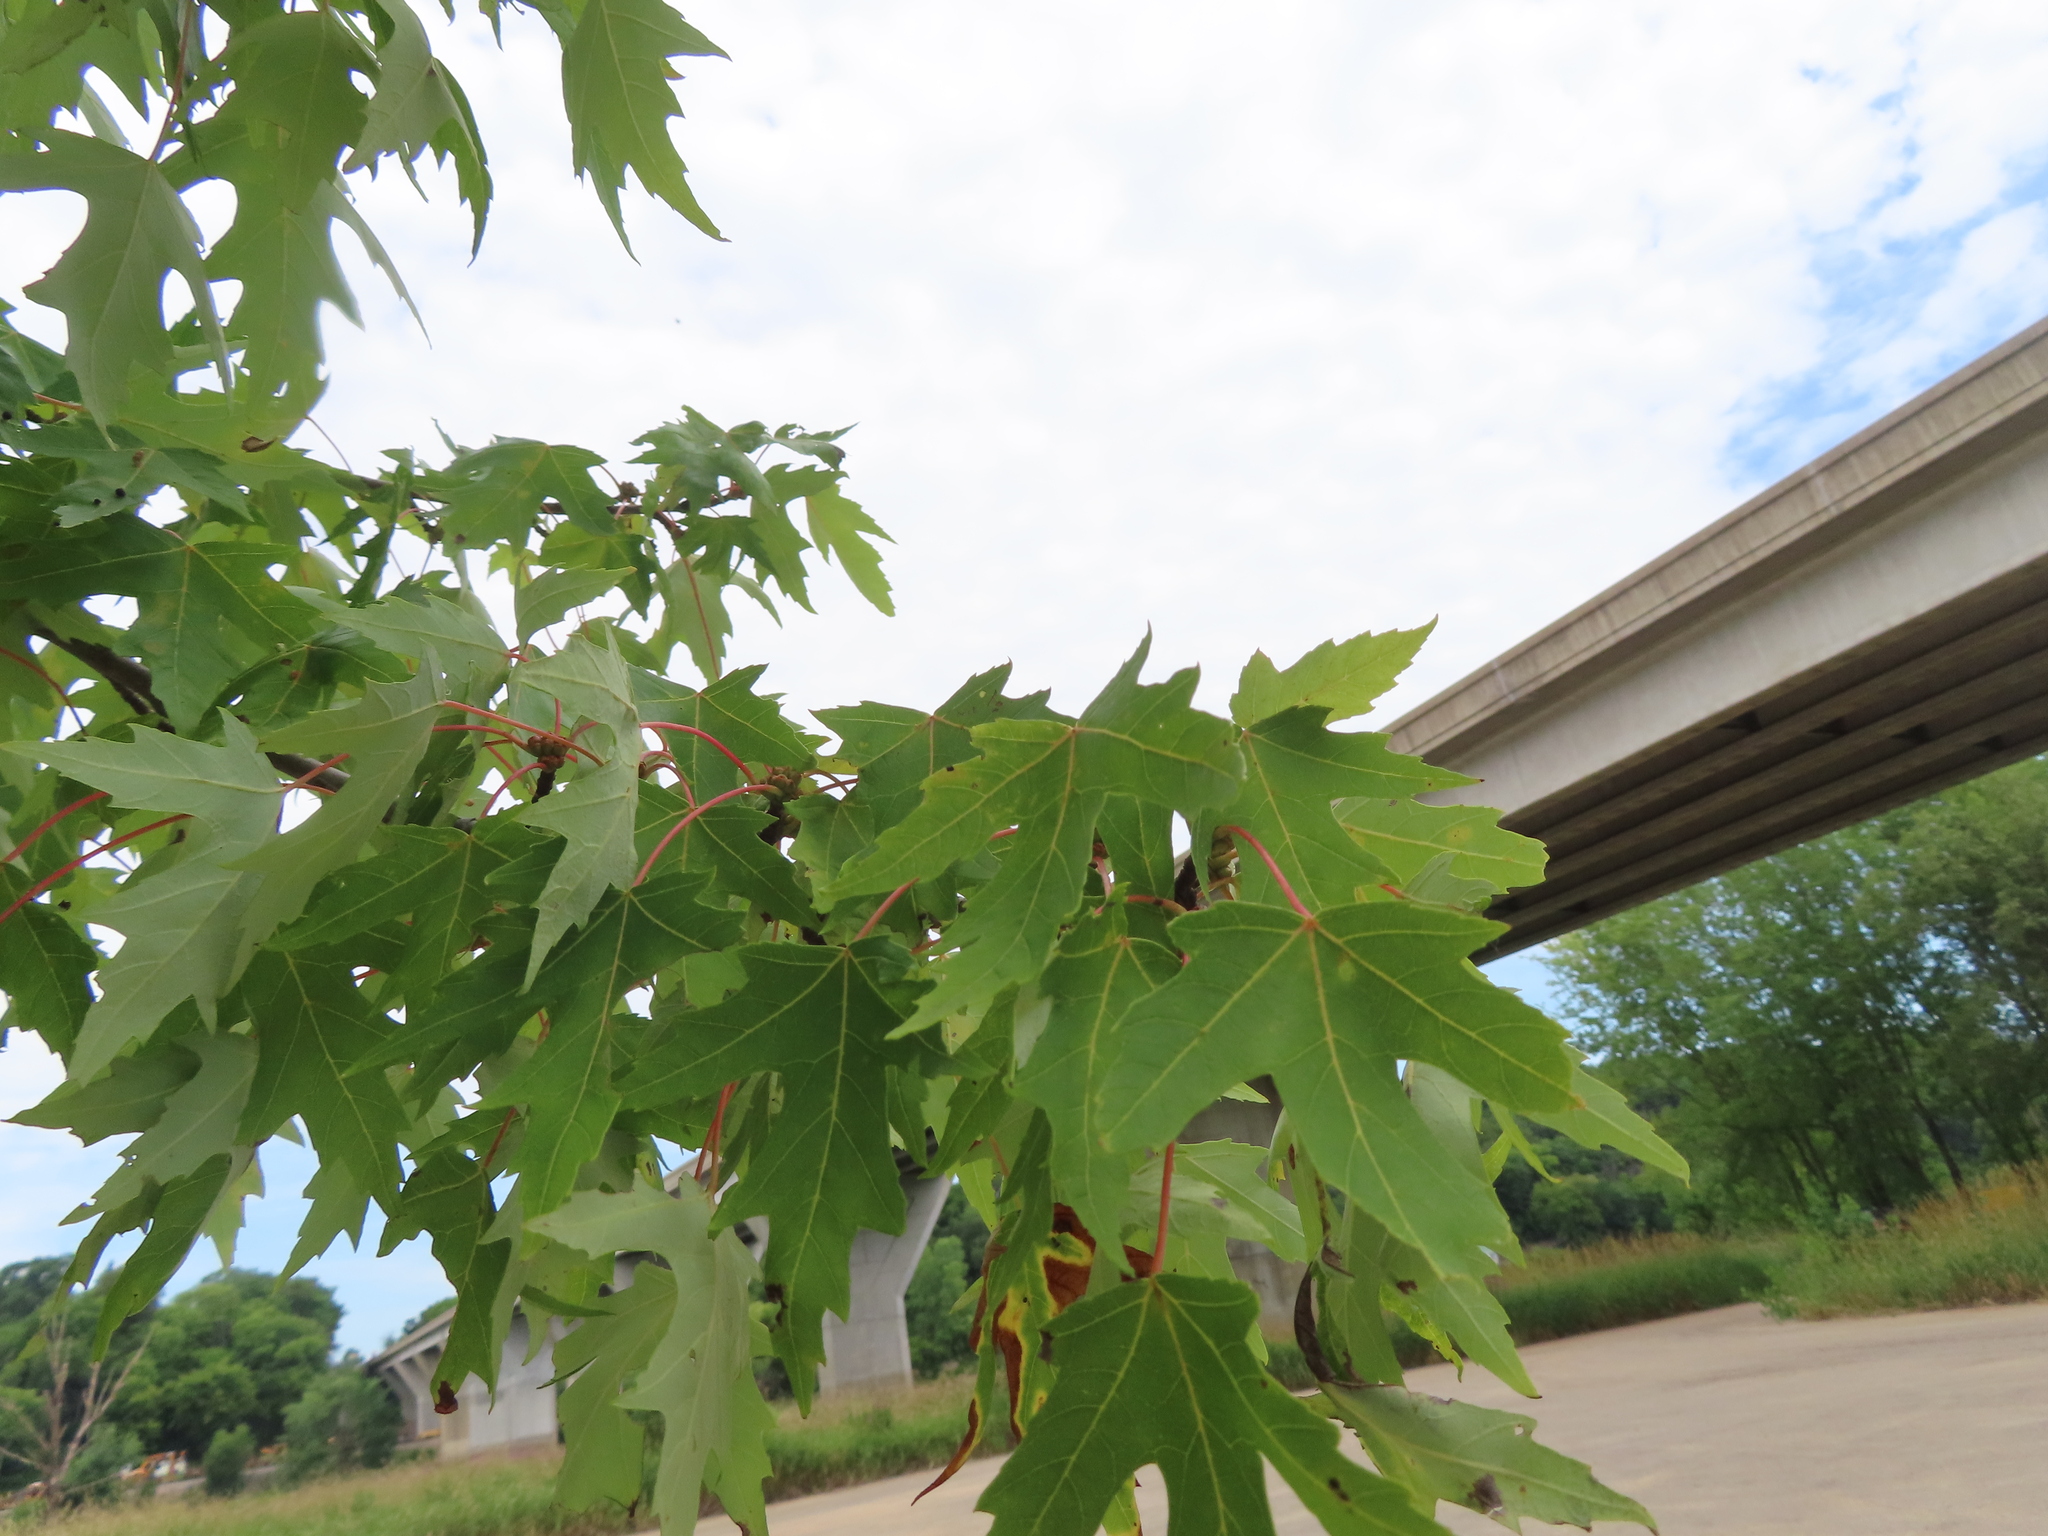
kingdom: Plantae
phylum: Tracheophyta
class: Magnoliopsida
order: Sapindales
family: Sapindaceae
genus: Acer
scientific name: Acer saccharinum
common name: Silver maple
